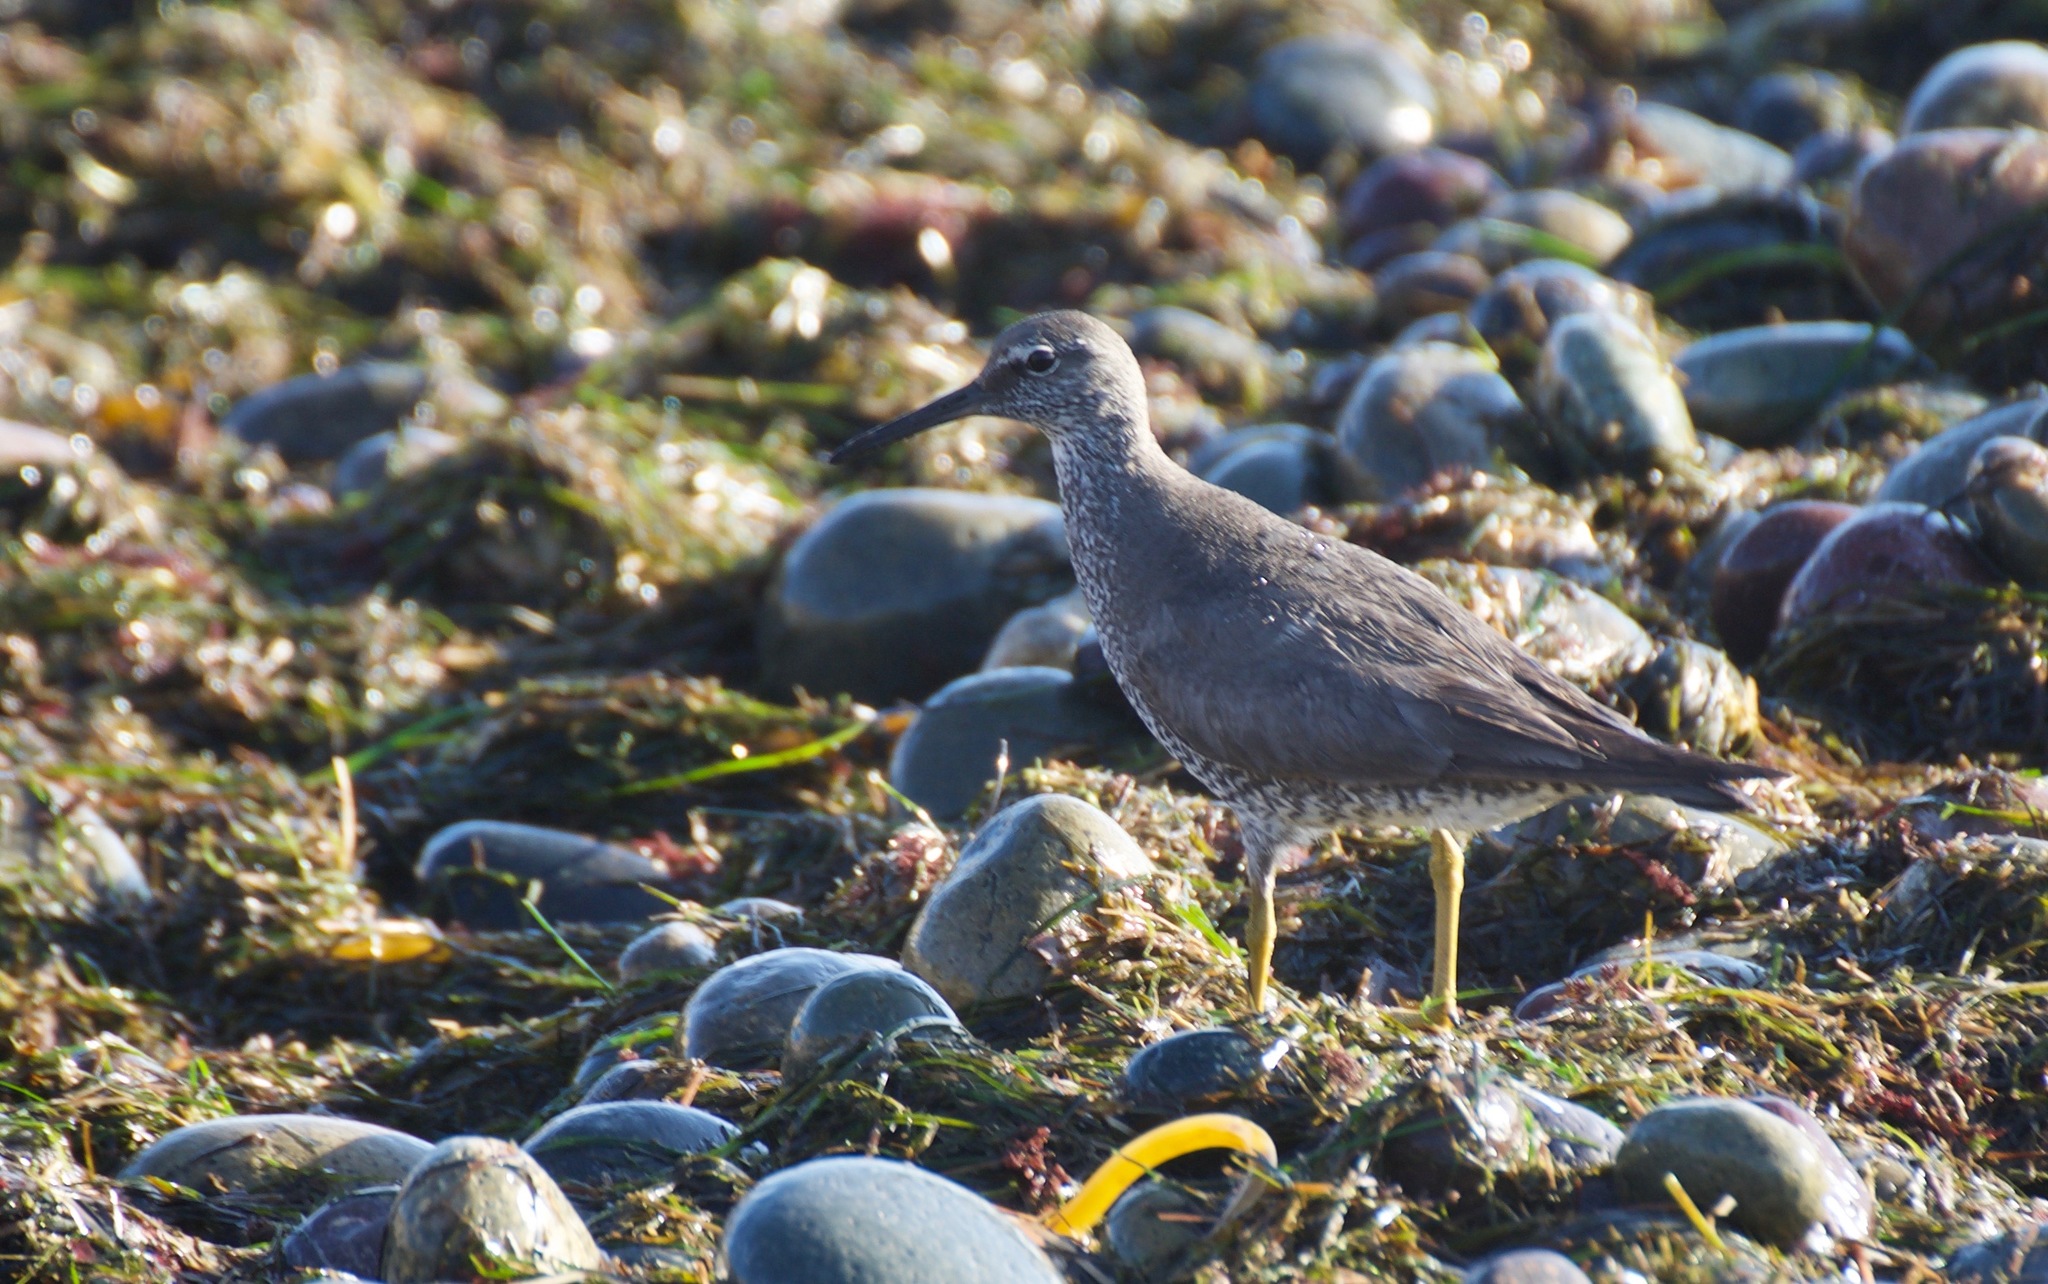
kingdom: Animalia
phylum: Chordata
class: Aves
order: Charadriiformes
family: Scolopacidae
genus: Tringa
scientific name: Tringa incana
